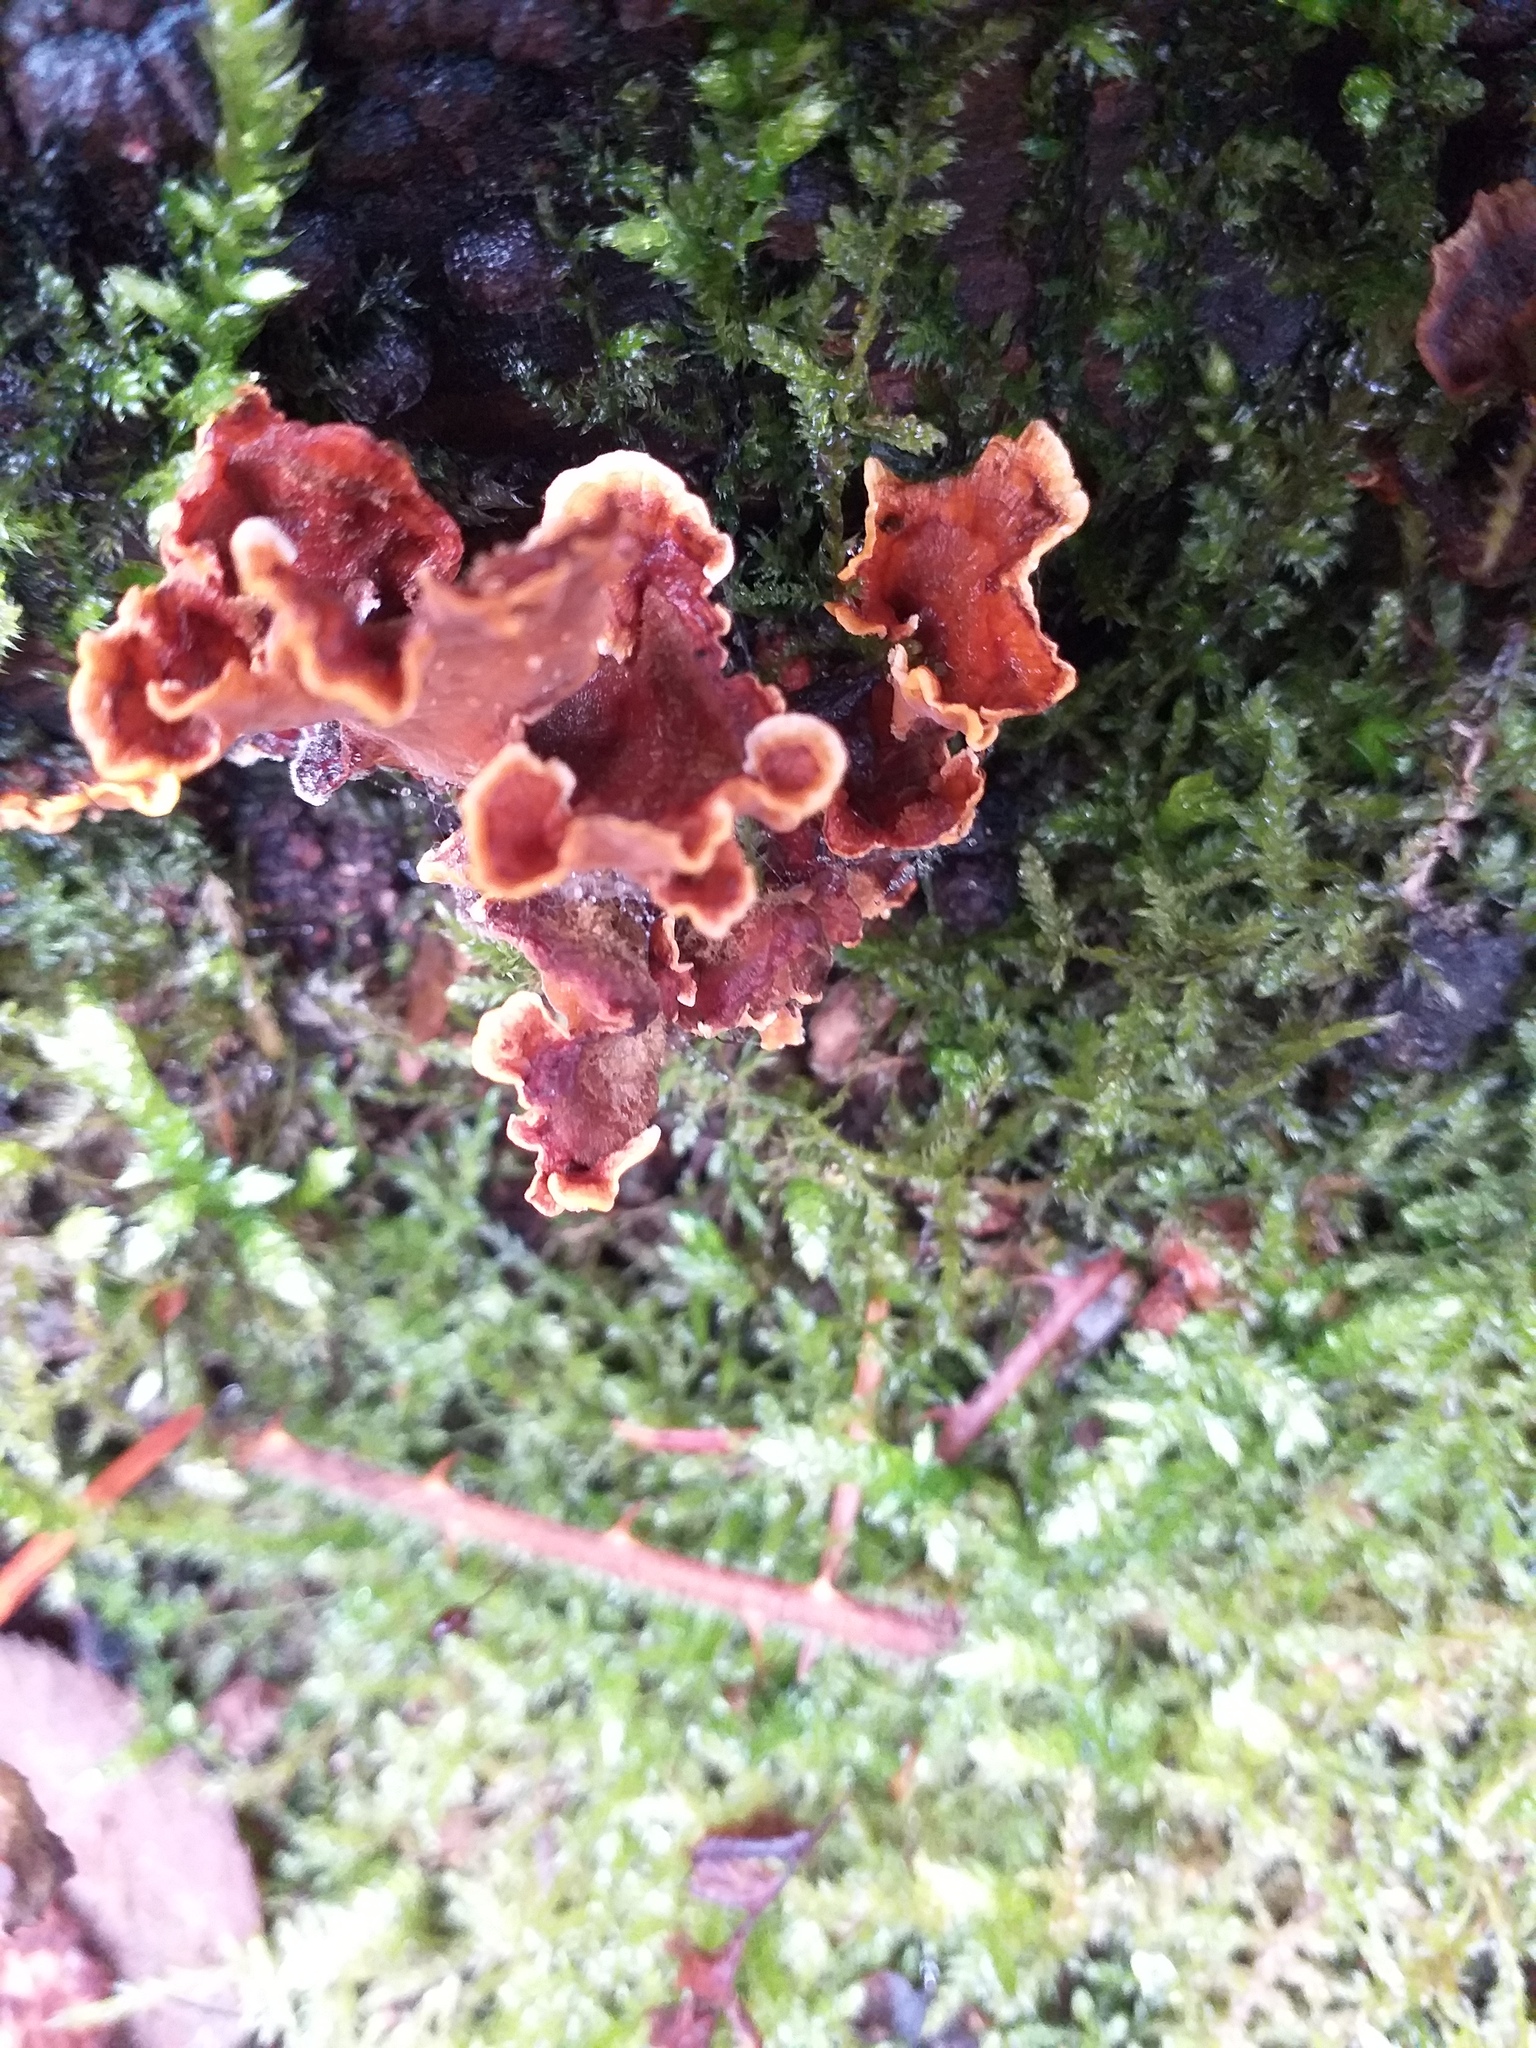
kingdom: Fungi
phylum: Basidiomycota
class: Agaricomycetes
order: Russulales
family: Stereaceae
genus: Stereum
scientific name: Stereum hirsutum
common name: Hairy curtain crust
